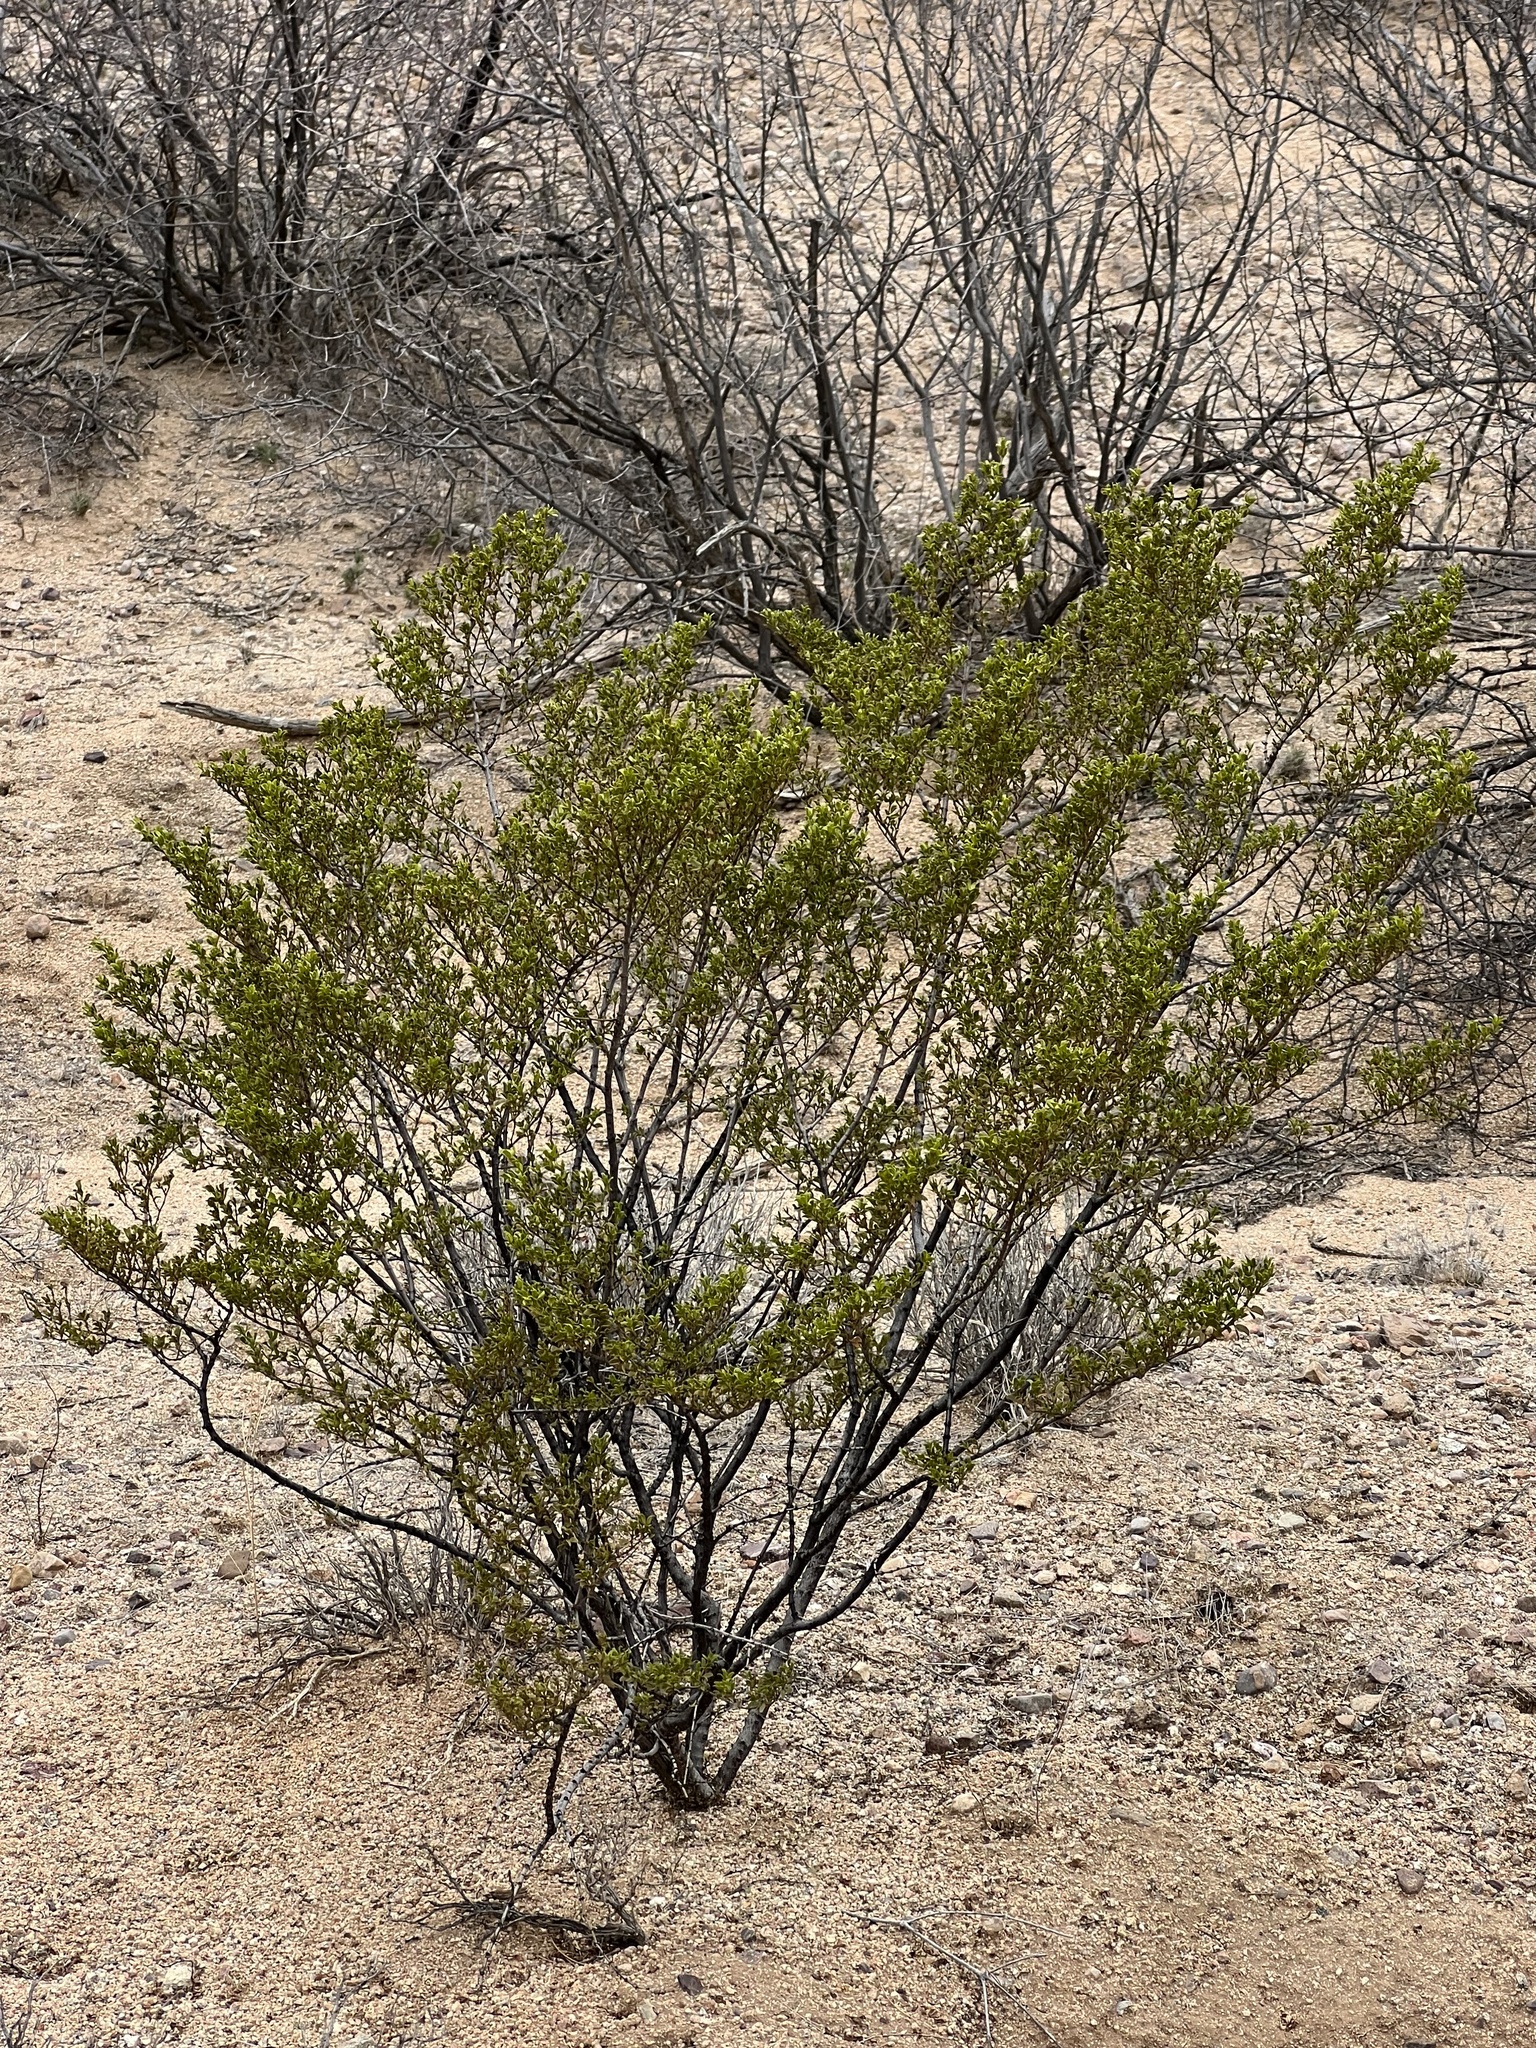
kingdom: Plantae
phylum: Tracheophyta
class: Magnoliopsida
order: Zygophyllales
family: Zygophyllaceae
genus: Larrea
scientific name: Larrea tridentata
